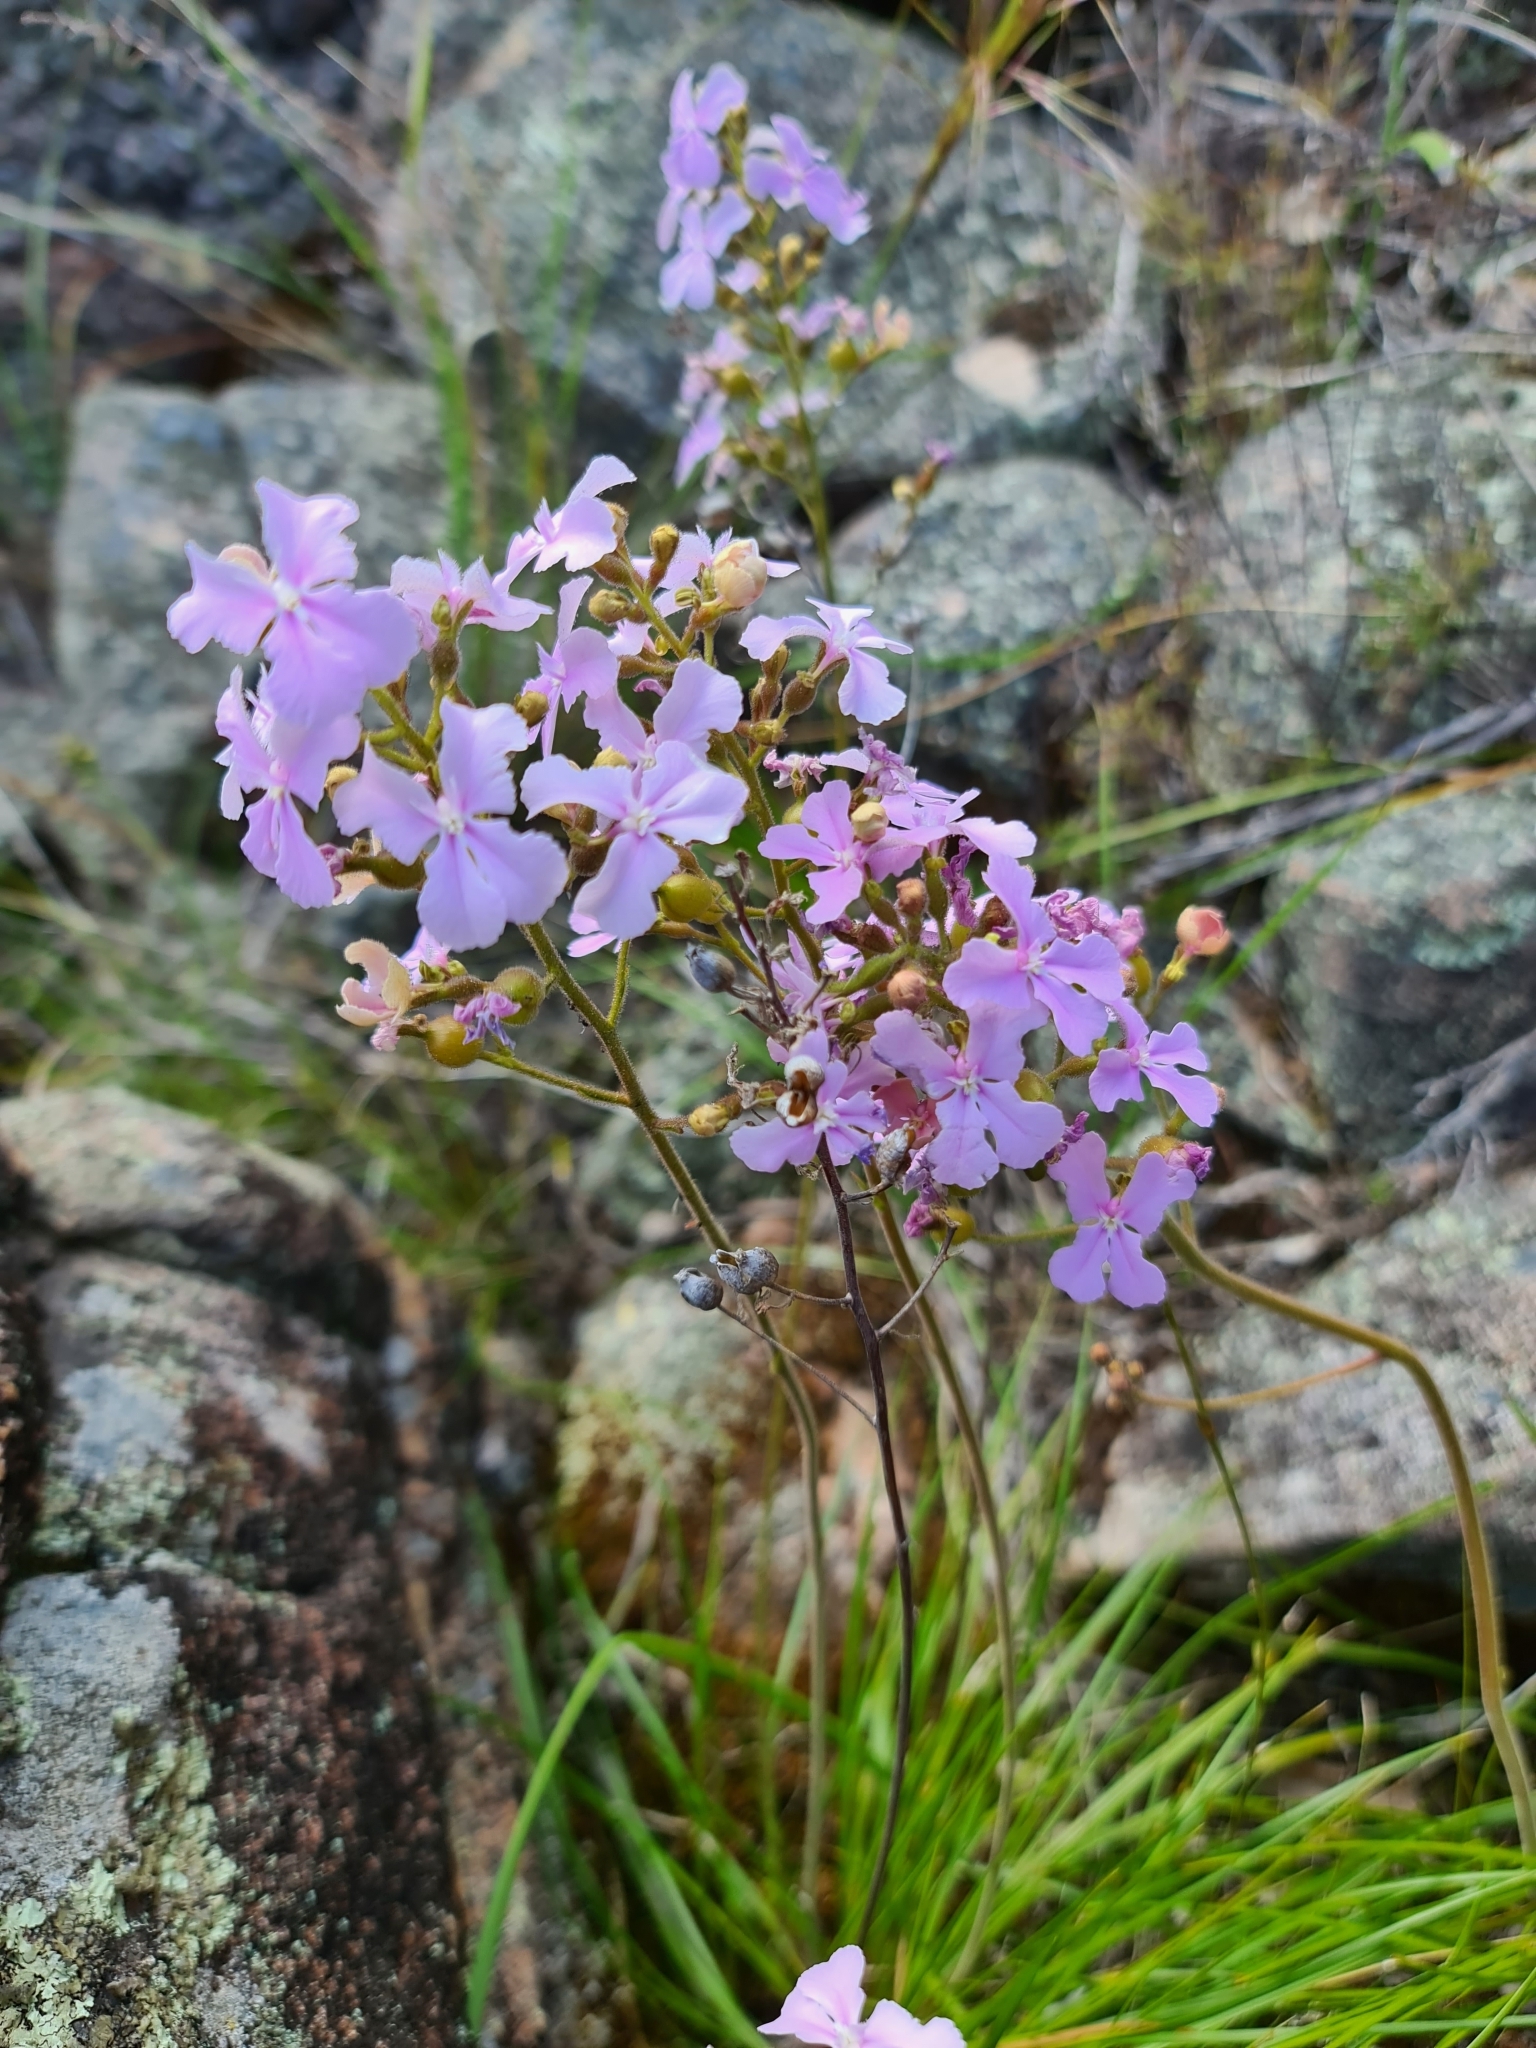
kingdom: Plantae
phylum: Tracheophyta
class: Magnoliopsida
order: Asterales
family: Stylidiaceae
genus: Stylidium
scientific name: Stylidium affine
